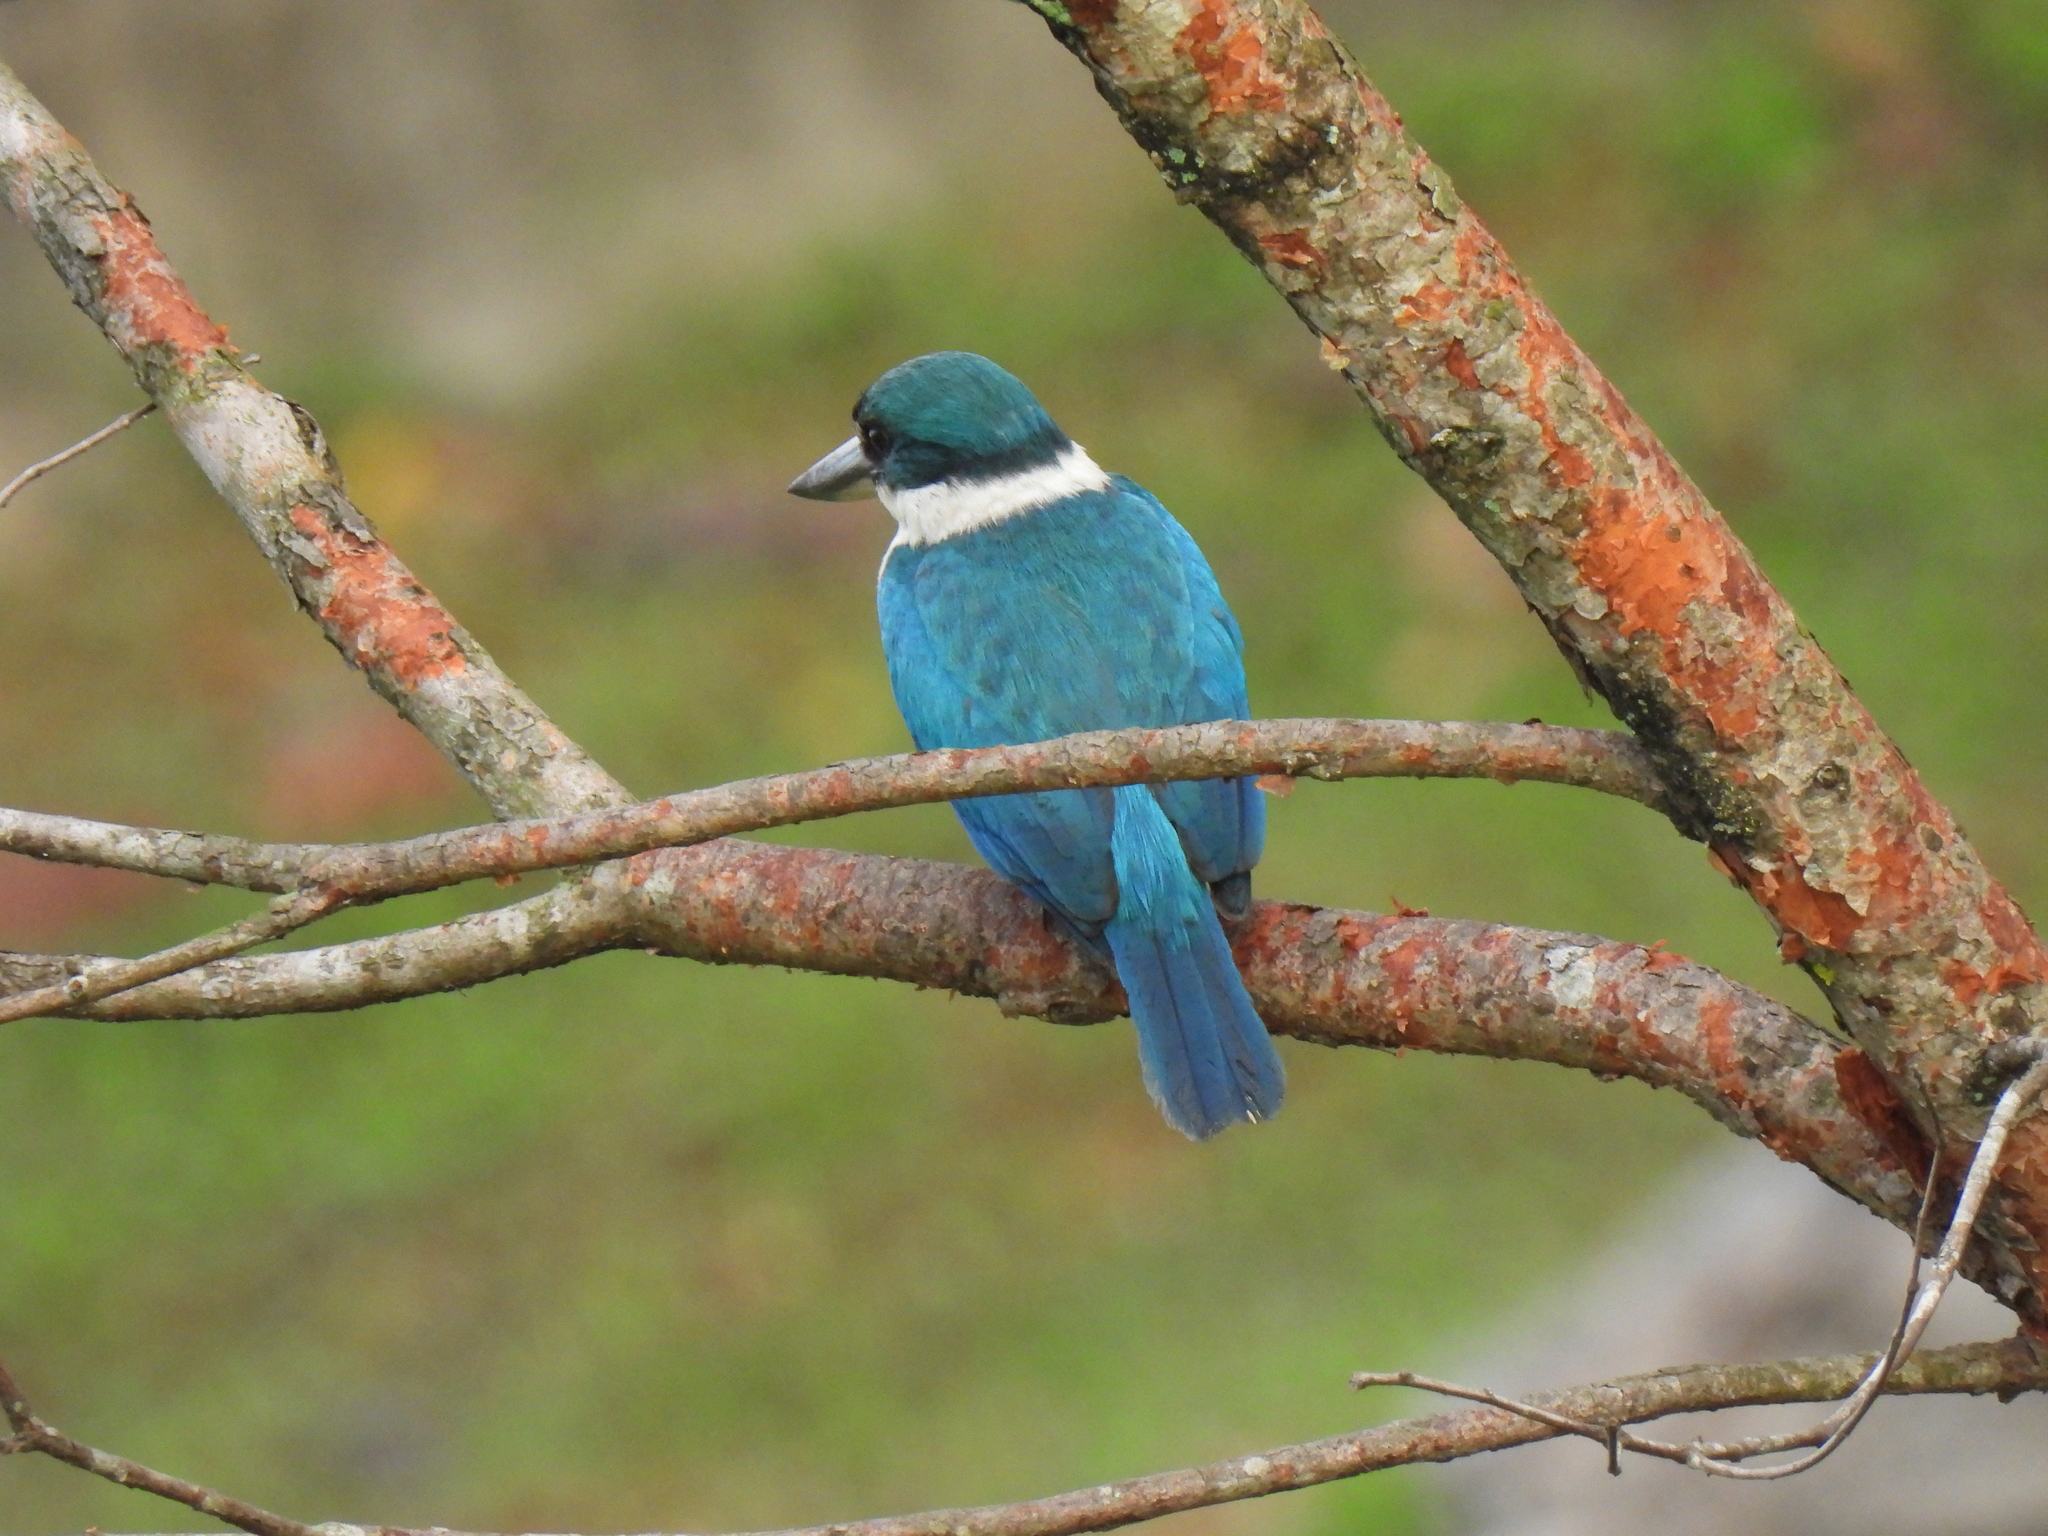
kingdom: Animalia
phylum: Chordata
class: Aves
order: Coraciiformes
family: Alcedinidae
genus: Todiramphus
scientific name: Todiramphus chloris
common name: Collared kingfisher
